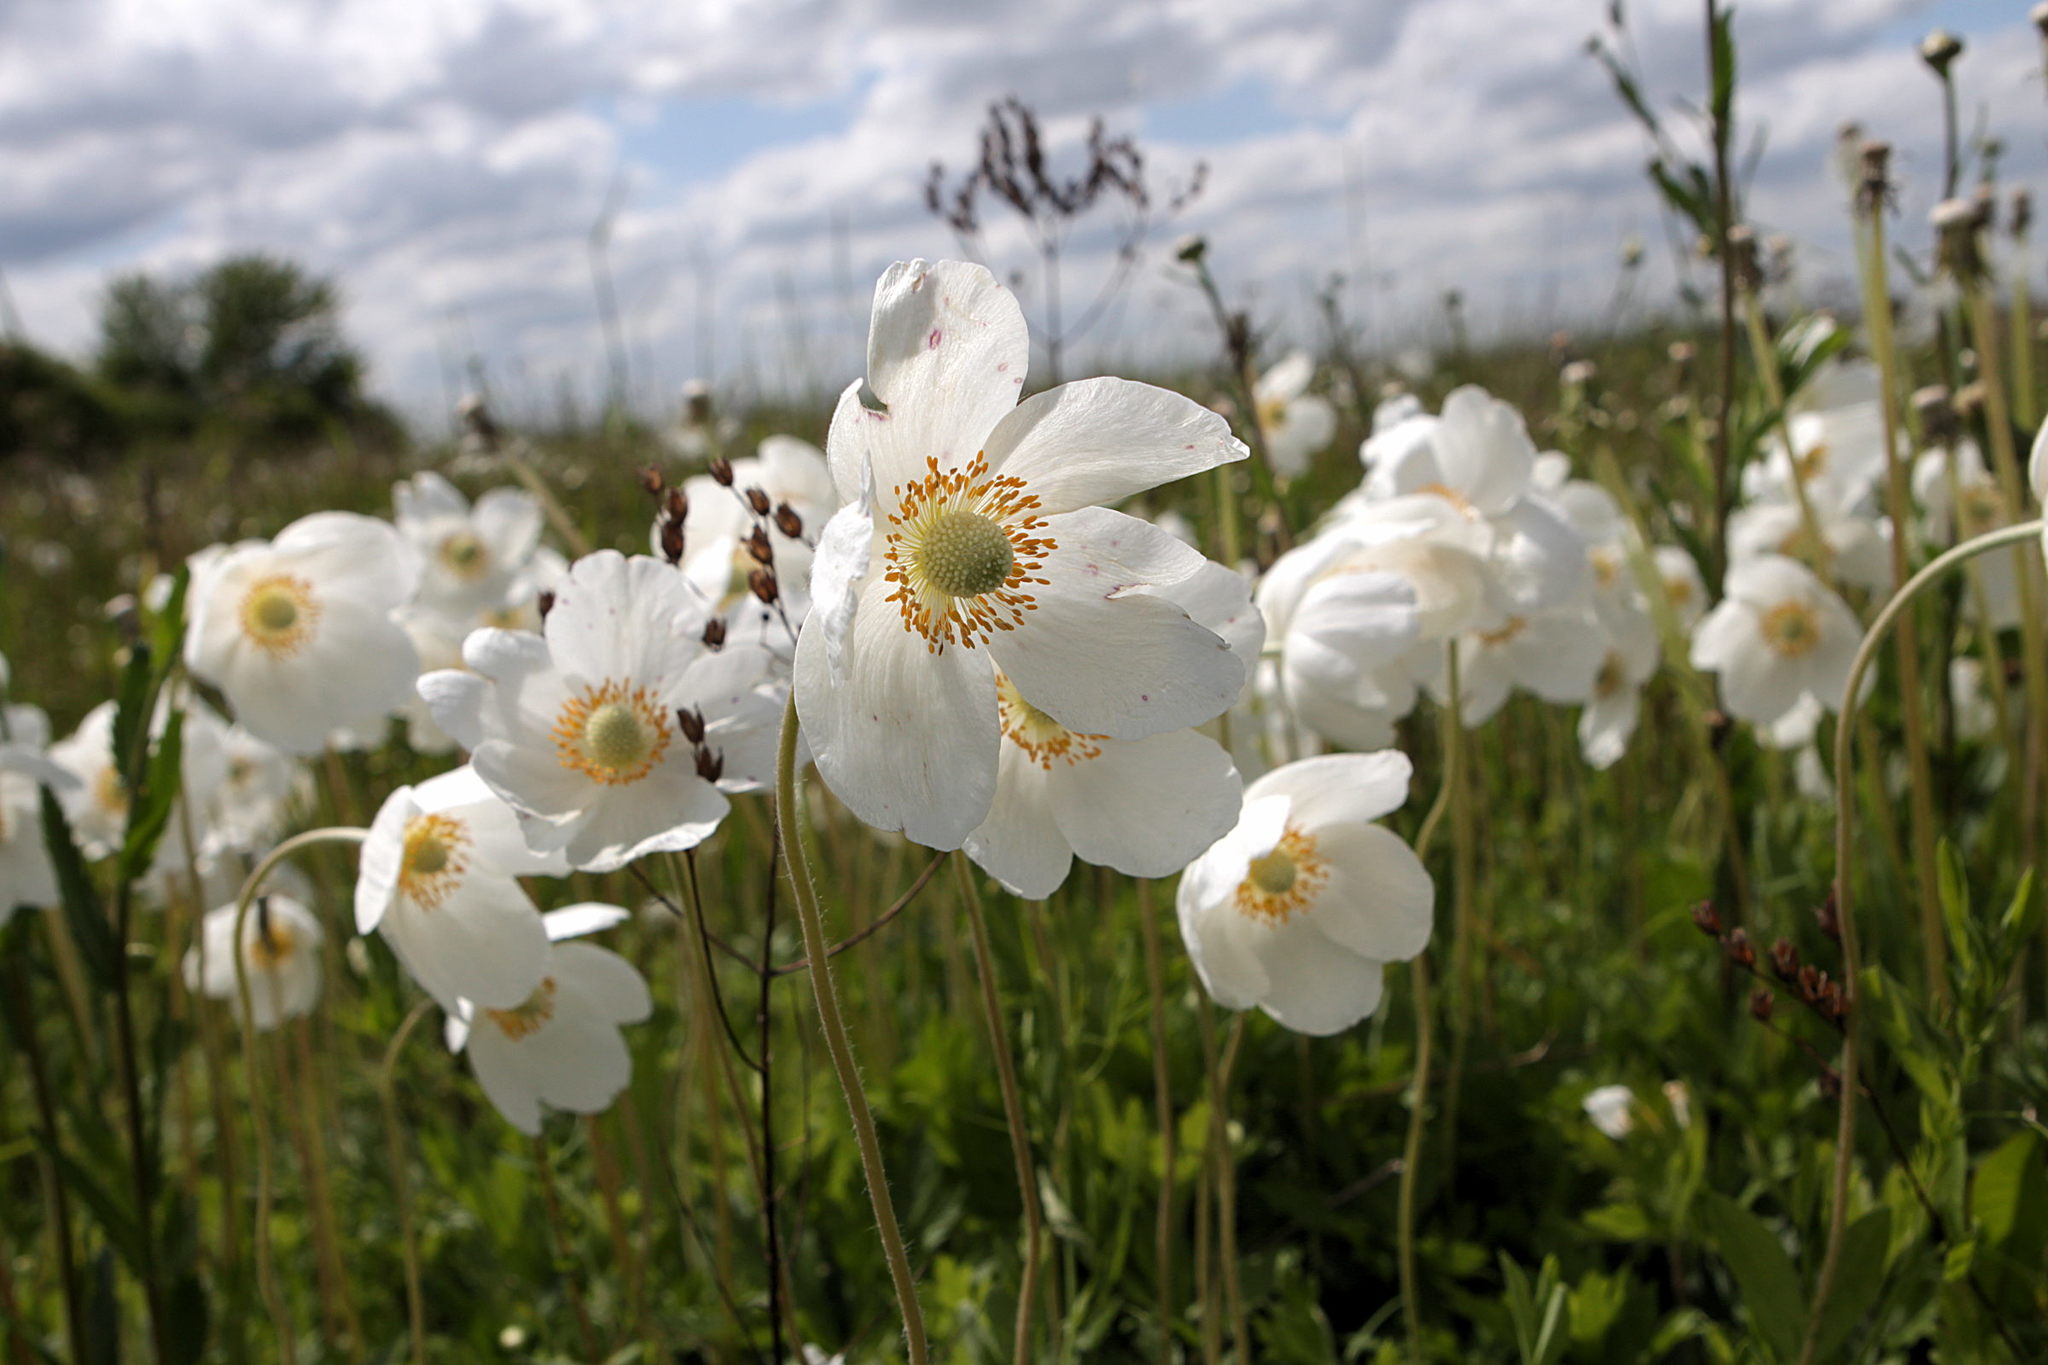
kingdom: Plantae
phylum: Tracheophyta
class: Magnoliopsida
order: Ranunculales
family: Ranunculaceae
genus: Anemone
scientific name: Anemone sylvestris
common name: Snowdrop anemone
